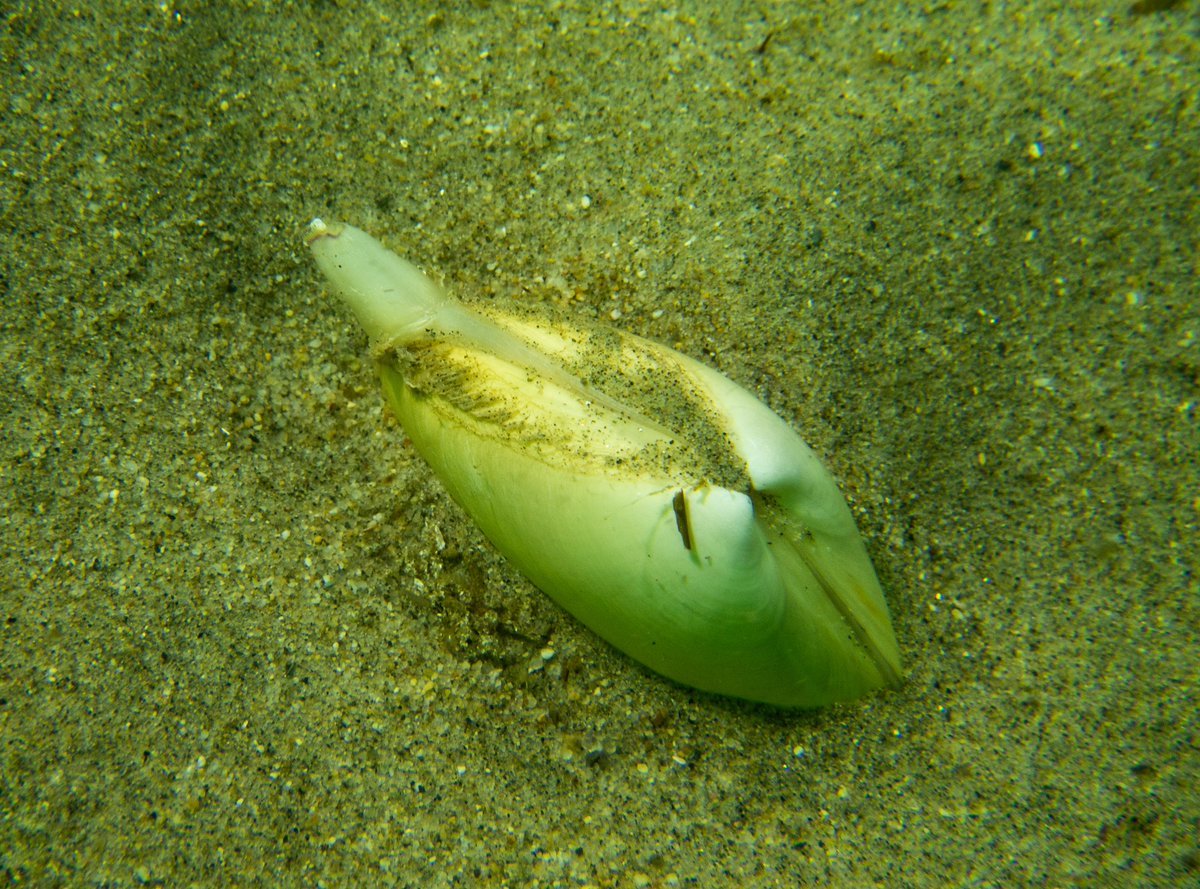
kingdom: Animalia
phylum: Mollusca
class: Bivalvia
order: Venerida
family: Mactridae
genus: Mactrotoma
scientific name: Mactrotoma californica
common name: California surfclam
